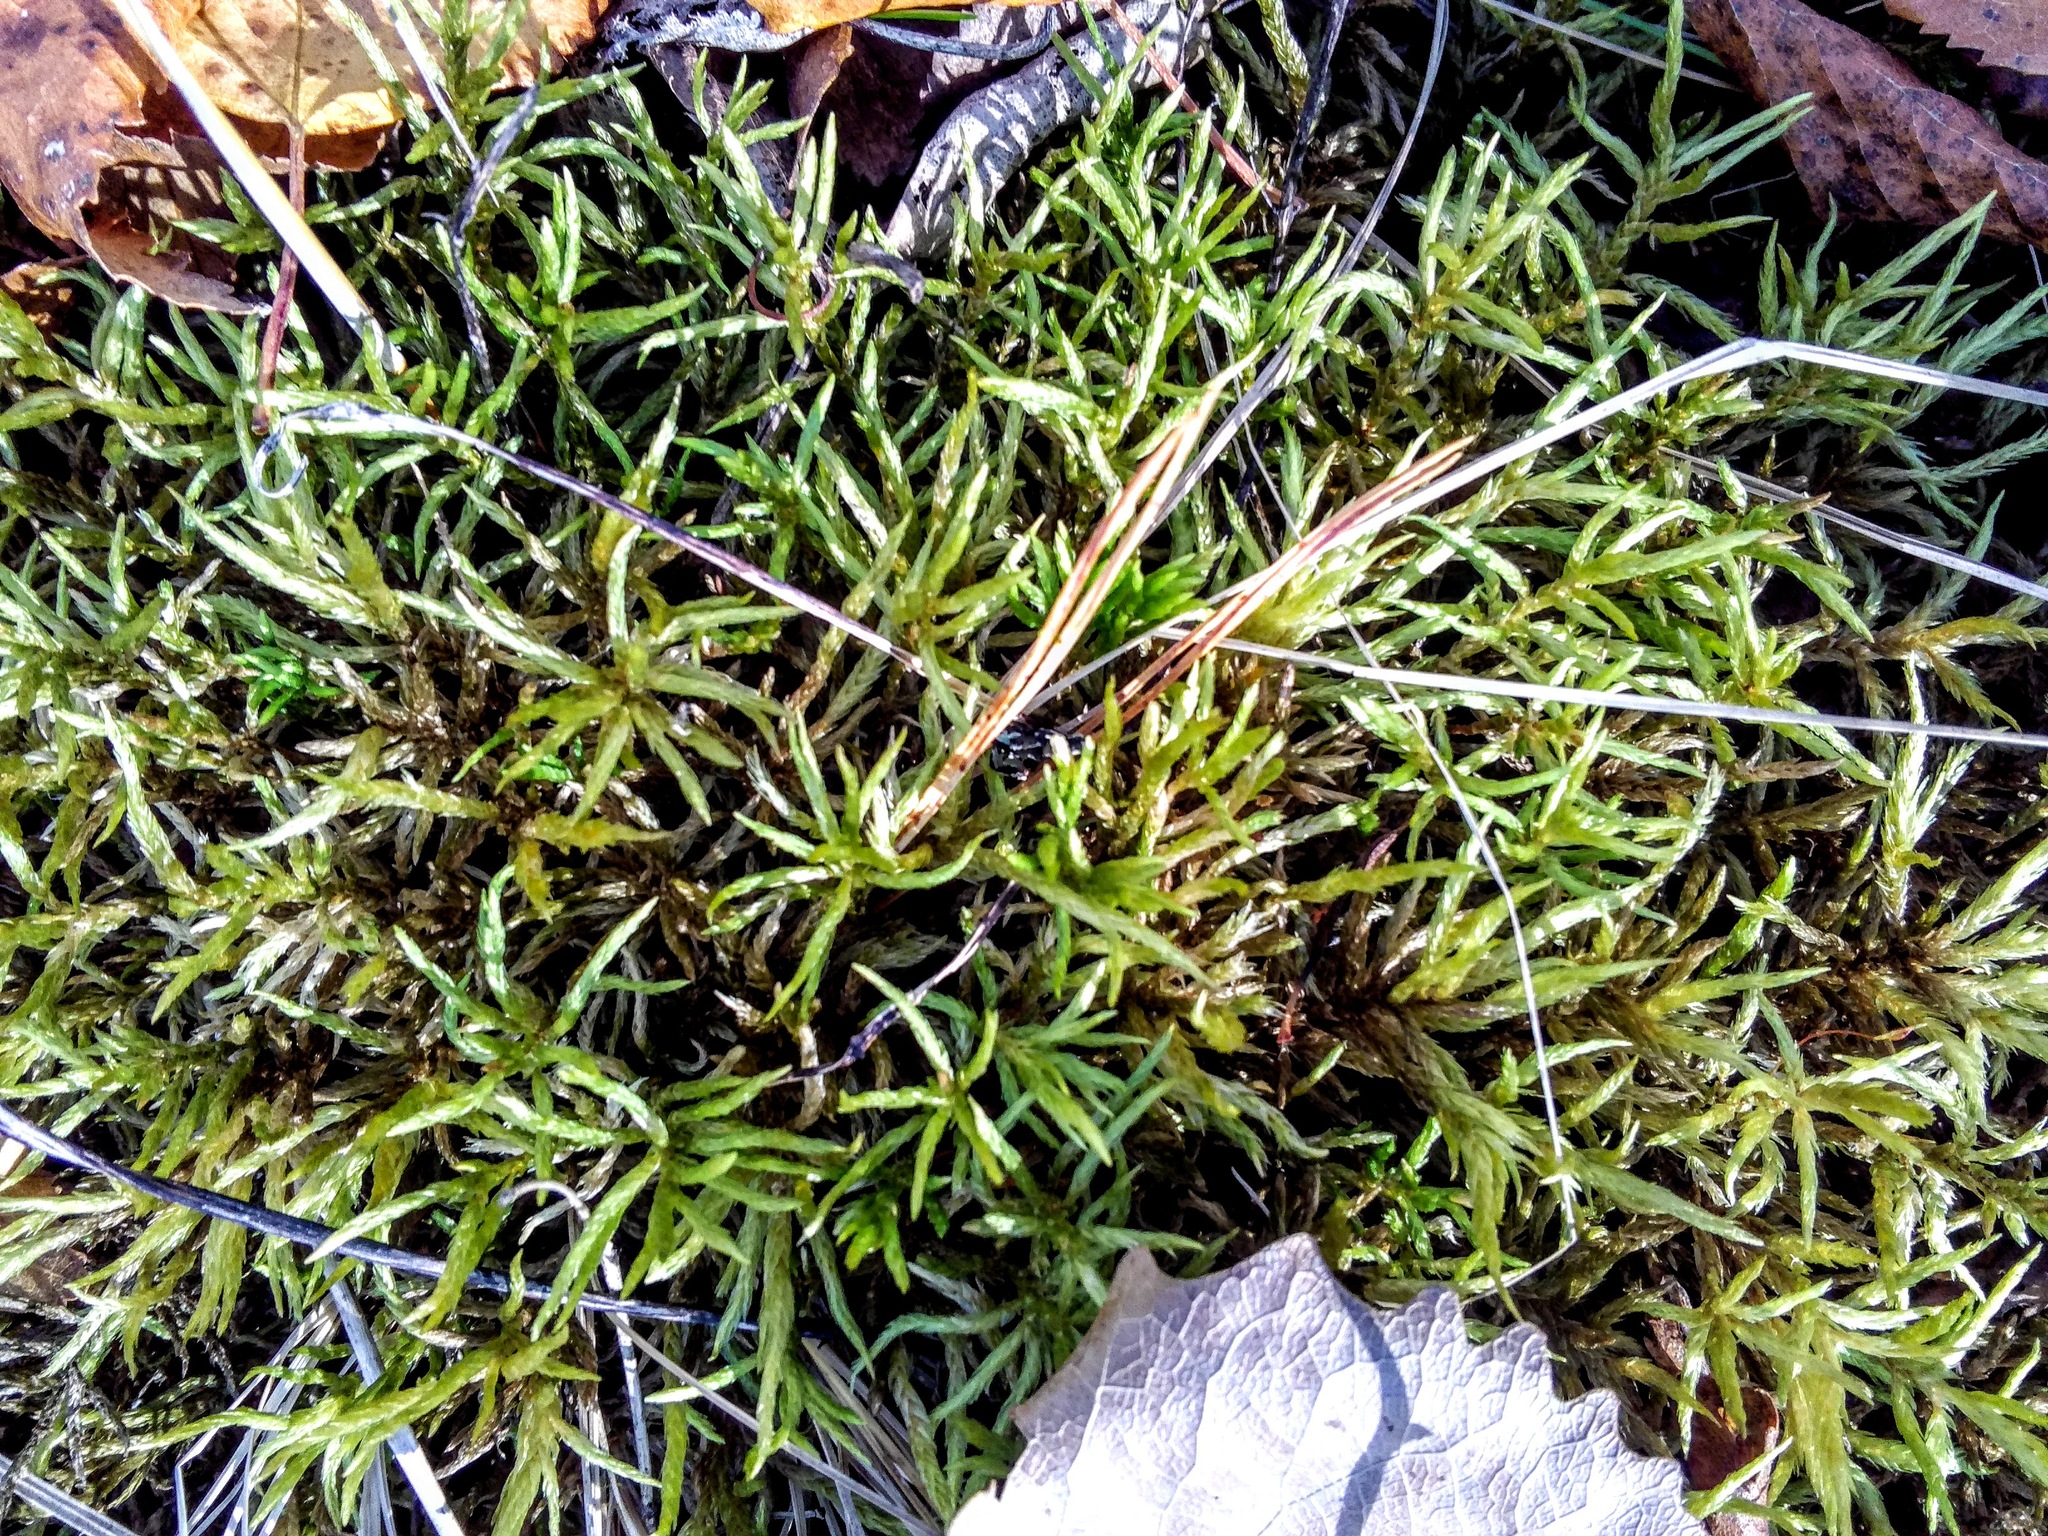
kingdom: Plantae
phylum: Bryophyta
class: Bryopsida
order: Hypnales
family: Climaciaceae
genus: Climacium
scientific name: Climacium dendroides
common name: Northern tree moss
